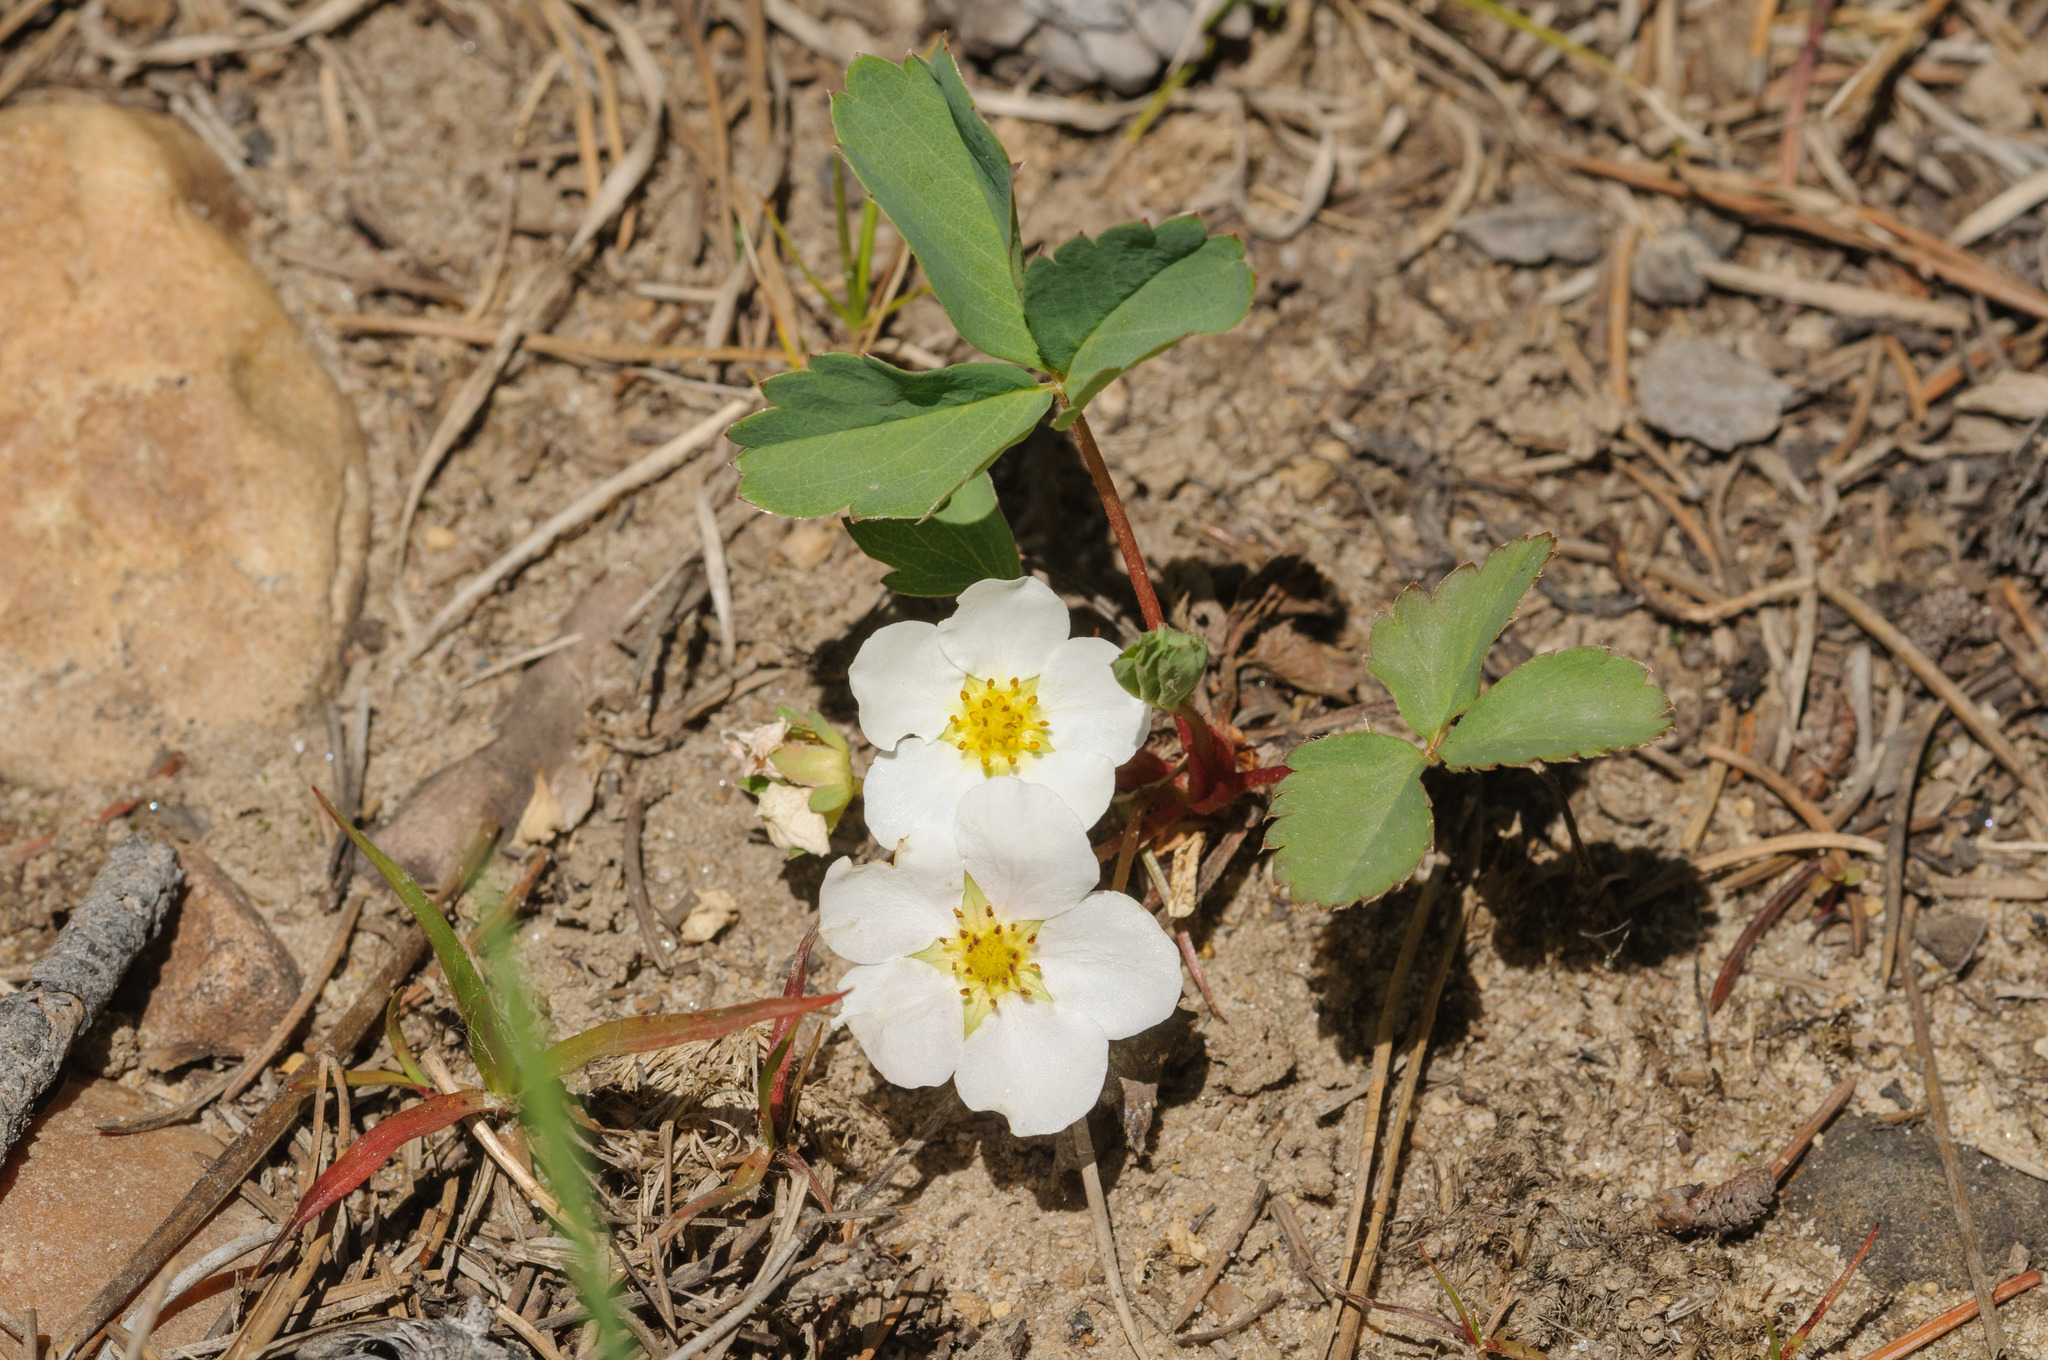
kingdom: Plantae
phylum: Tracheophyta
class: Magnoliopsida
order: Rosales
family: Rosaceae
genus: Fragaria
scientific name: Fragaria vesca
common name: Wild strawberry
